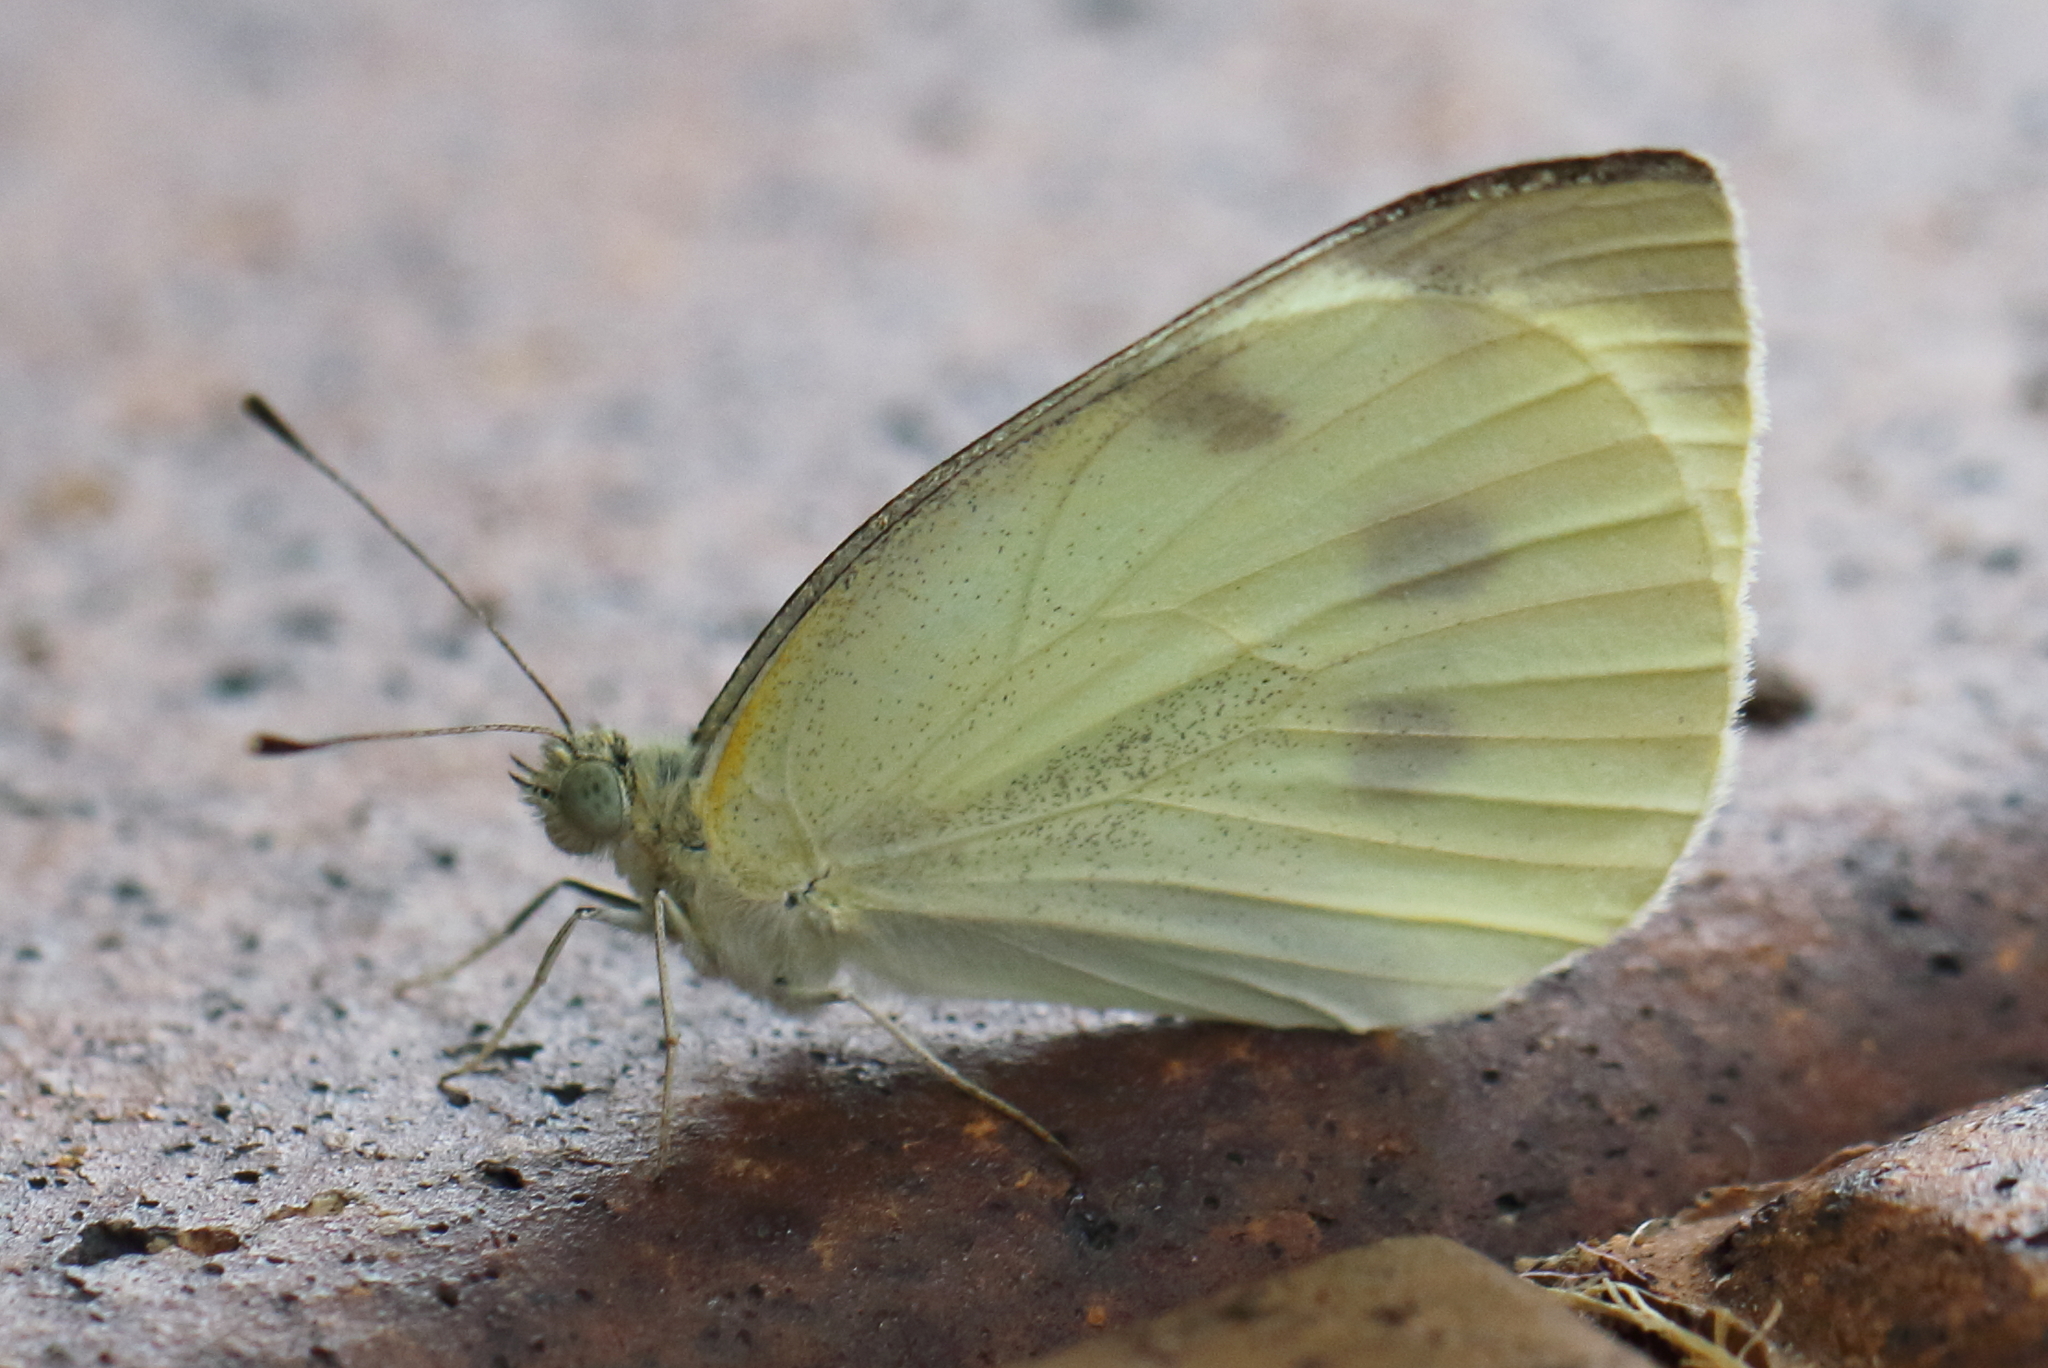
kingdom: Animalia
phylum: Arthropoda
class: Insecta
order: Lepidoptera
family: Pieridae
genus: Pieris
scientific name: Pieris rapae
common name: Small white
